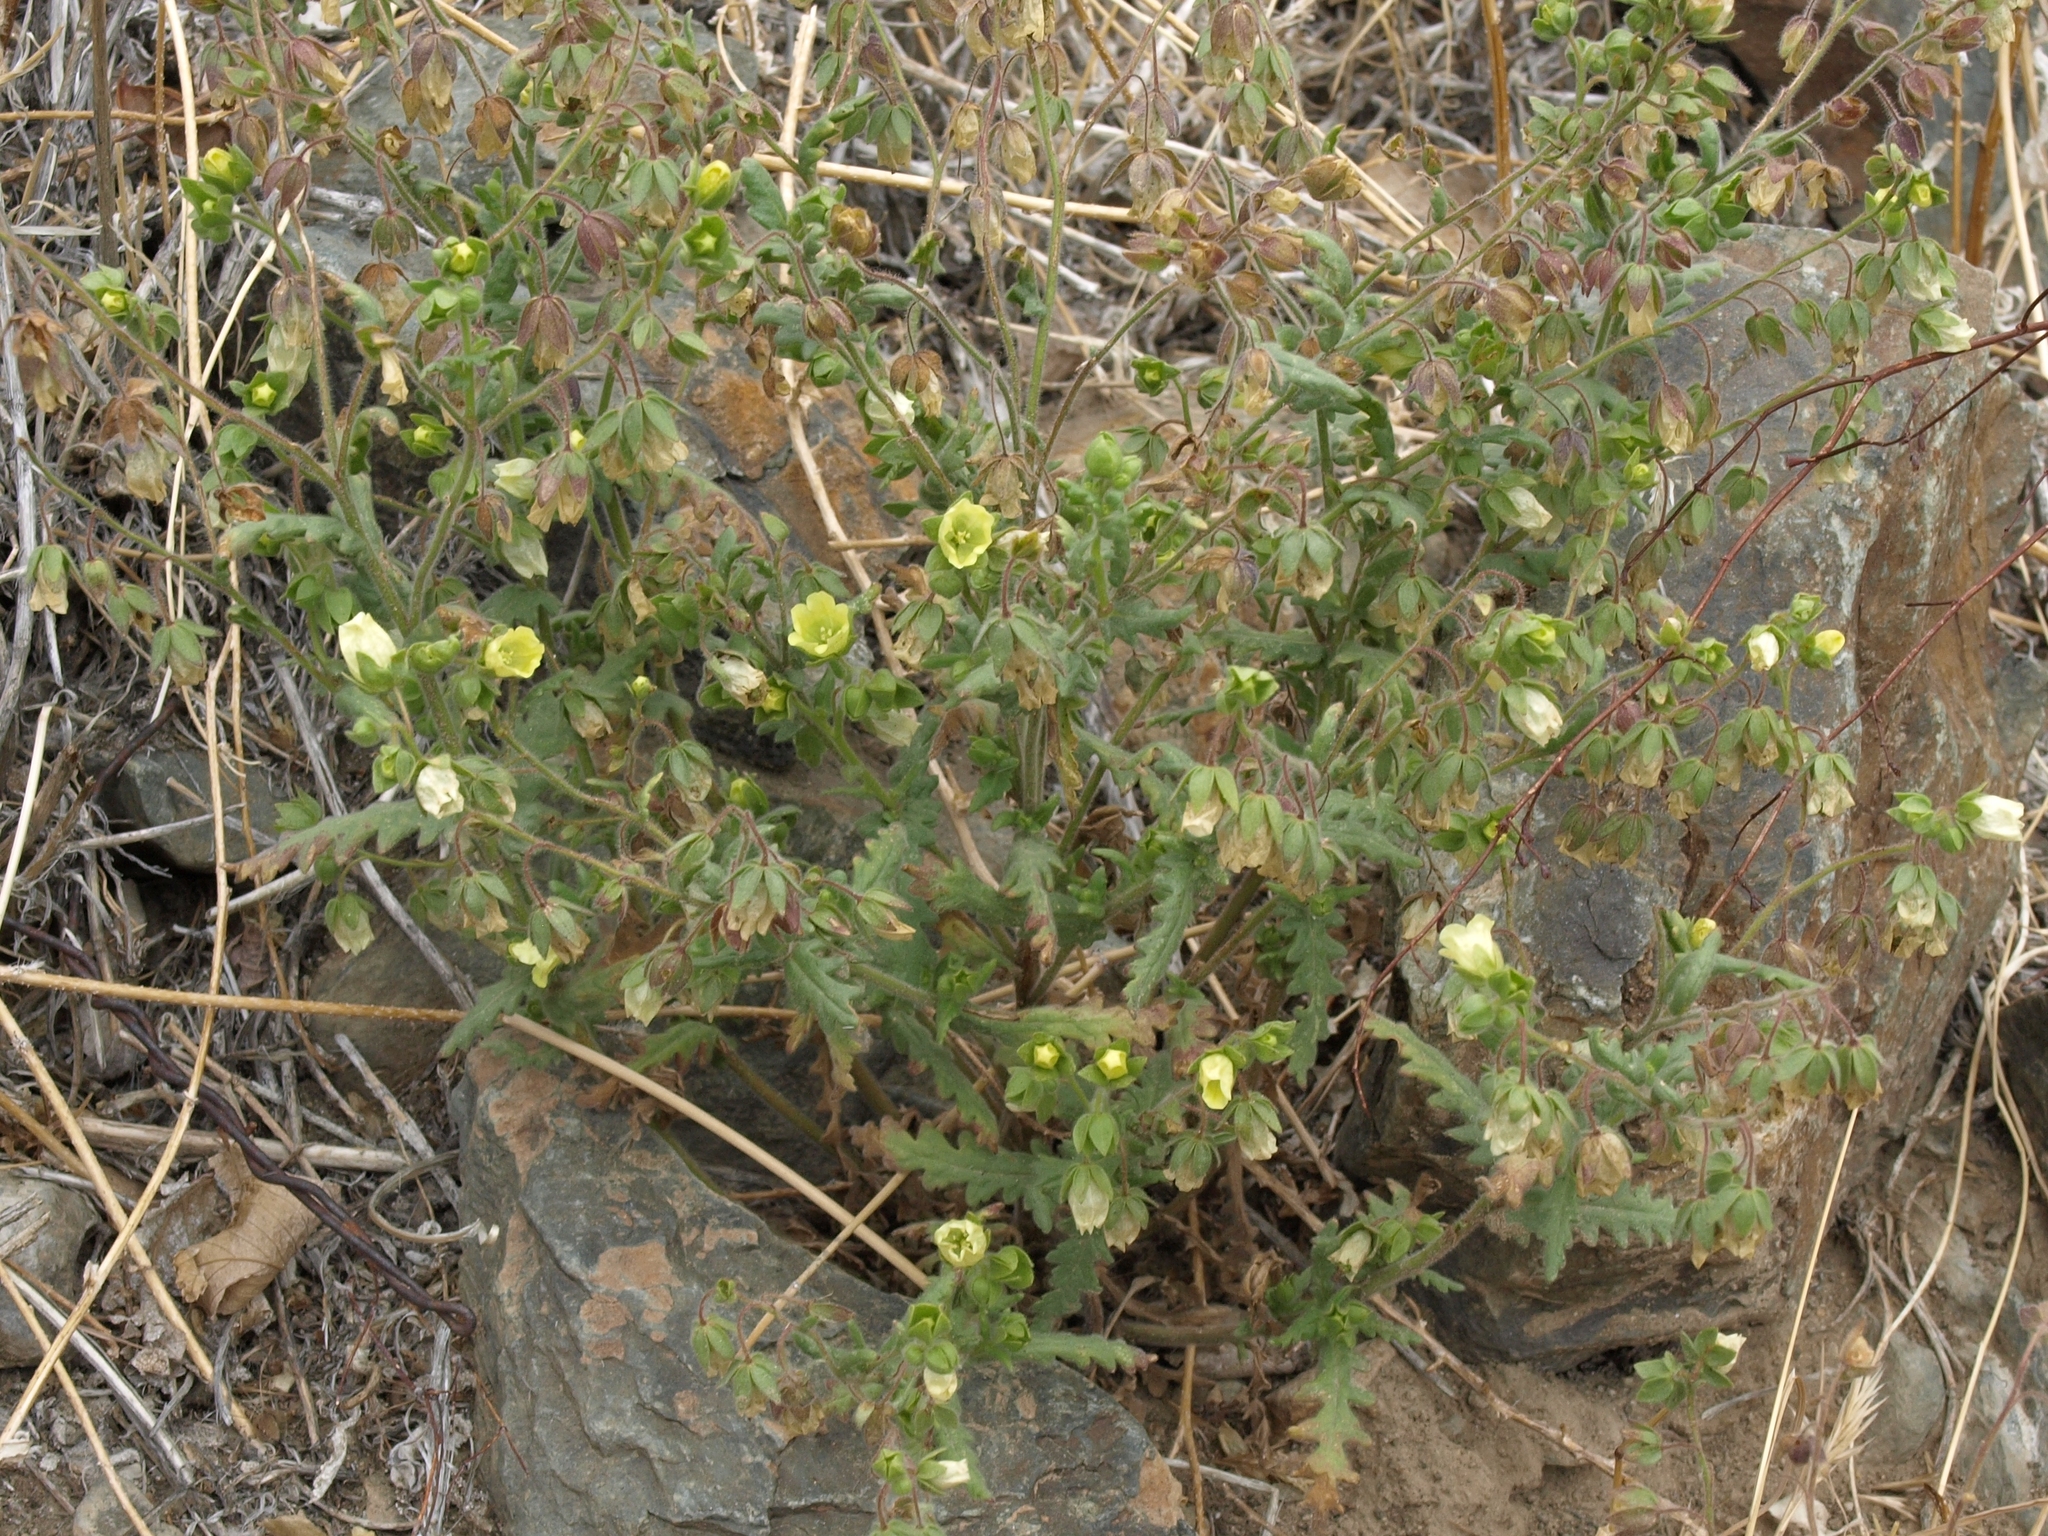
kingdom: Plantae
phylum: Tracheophyta
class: Magnoliopsida
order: Boraginales
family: Hydrophyllaceae
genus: Emmenanthe
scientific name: Emmenanthe penduliflora
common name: Whispering-bells
